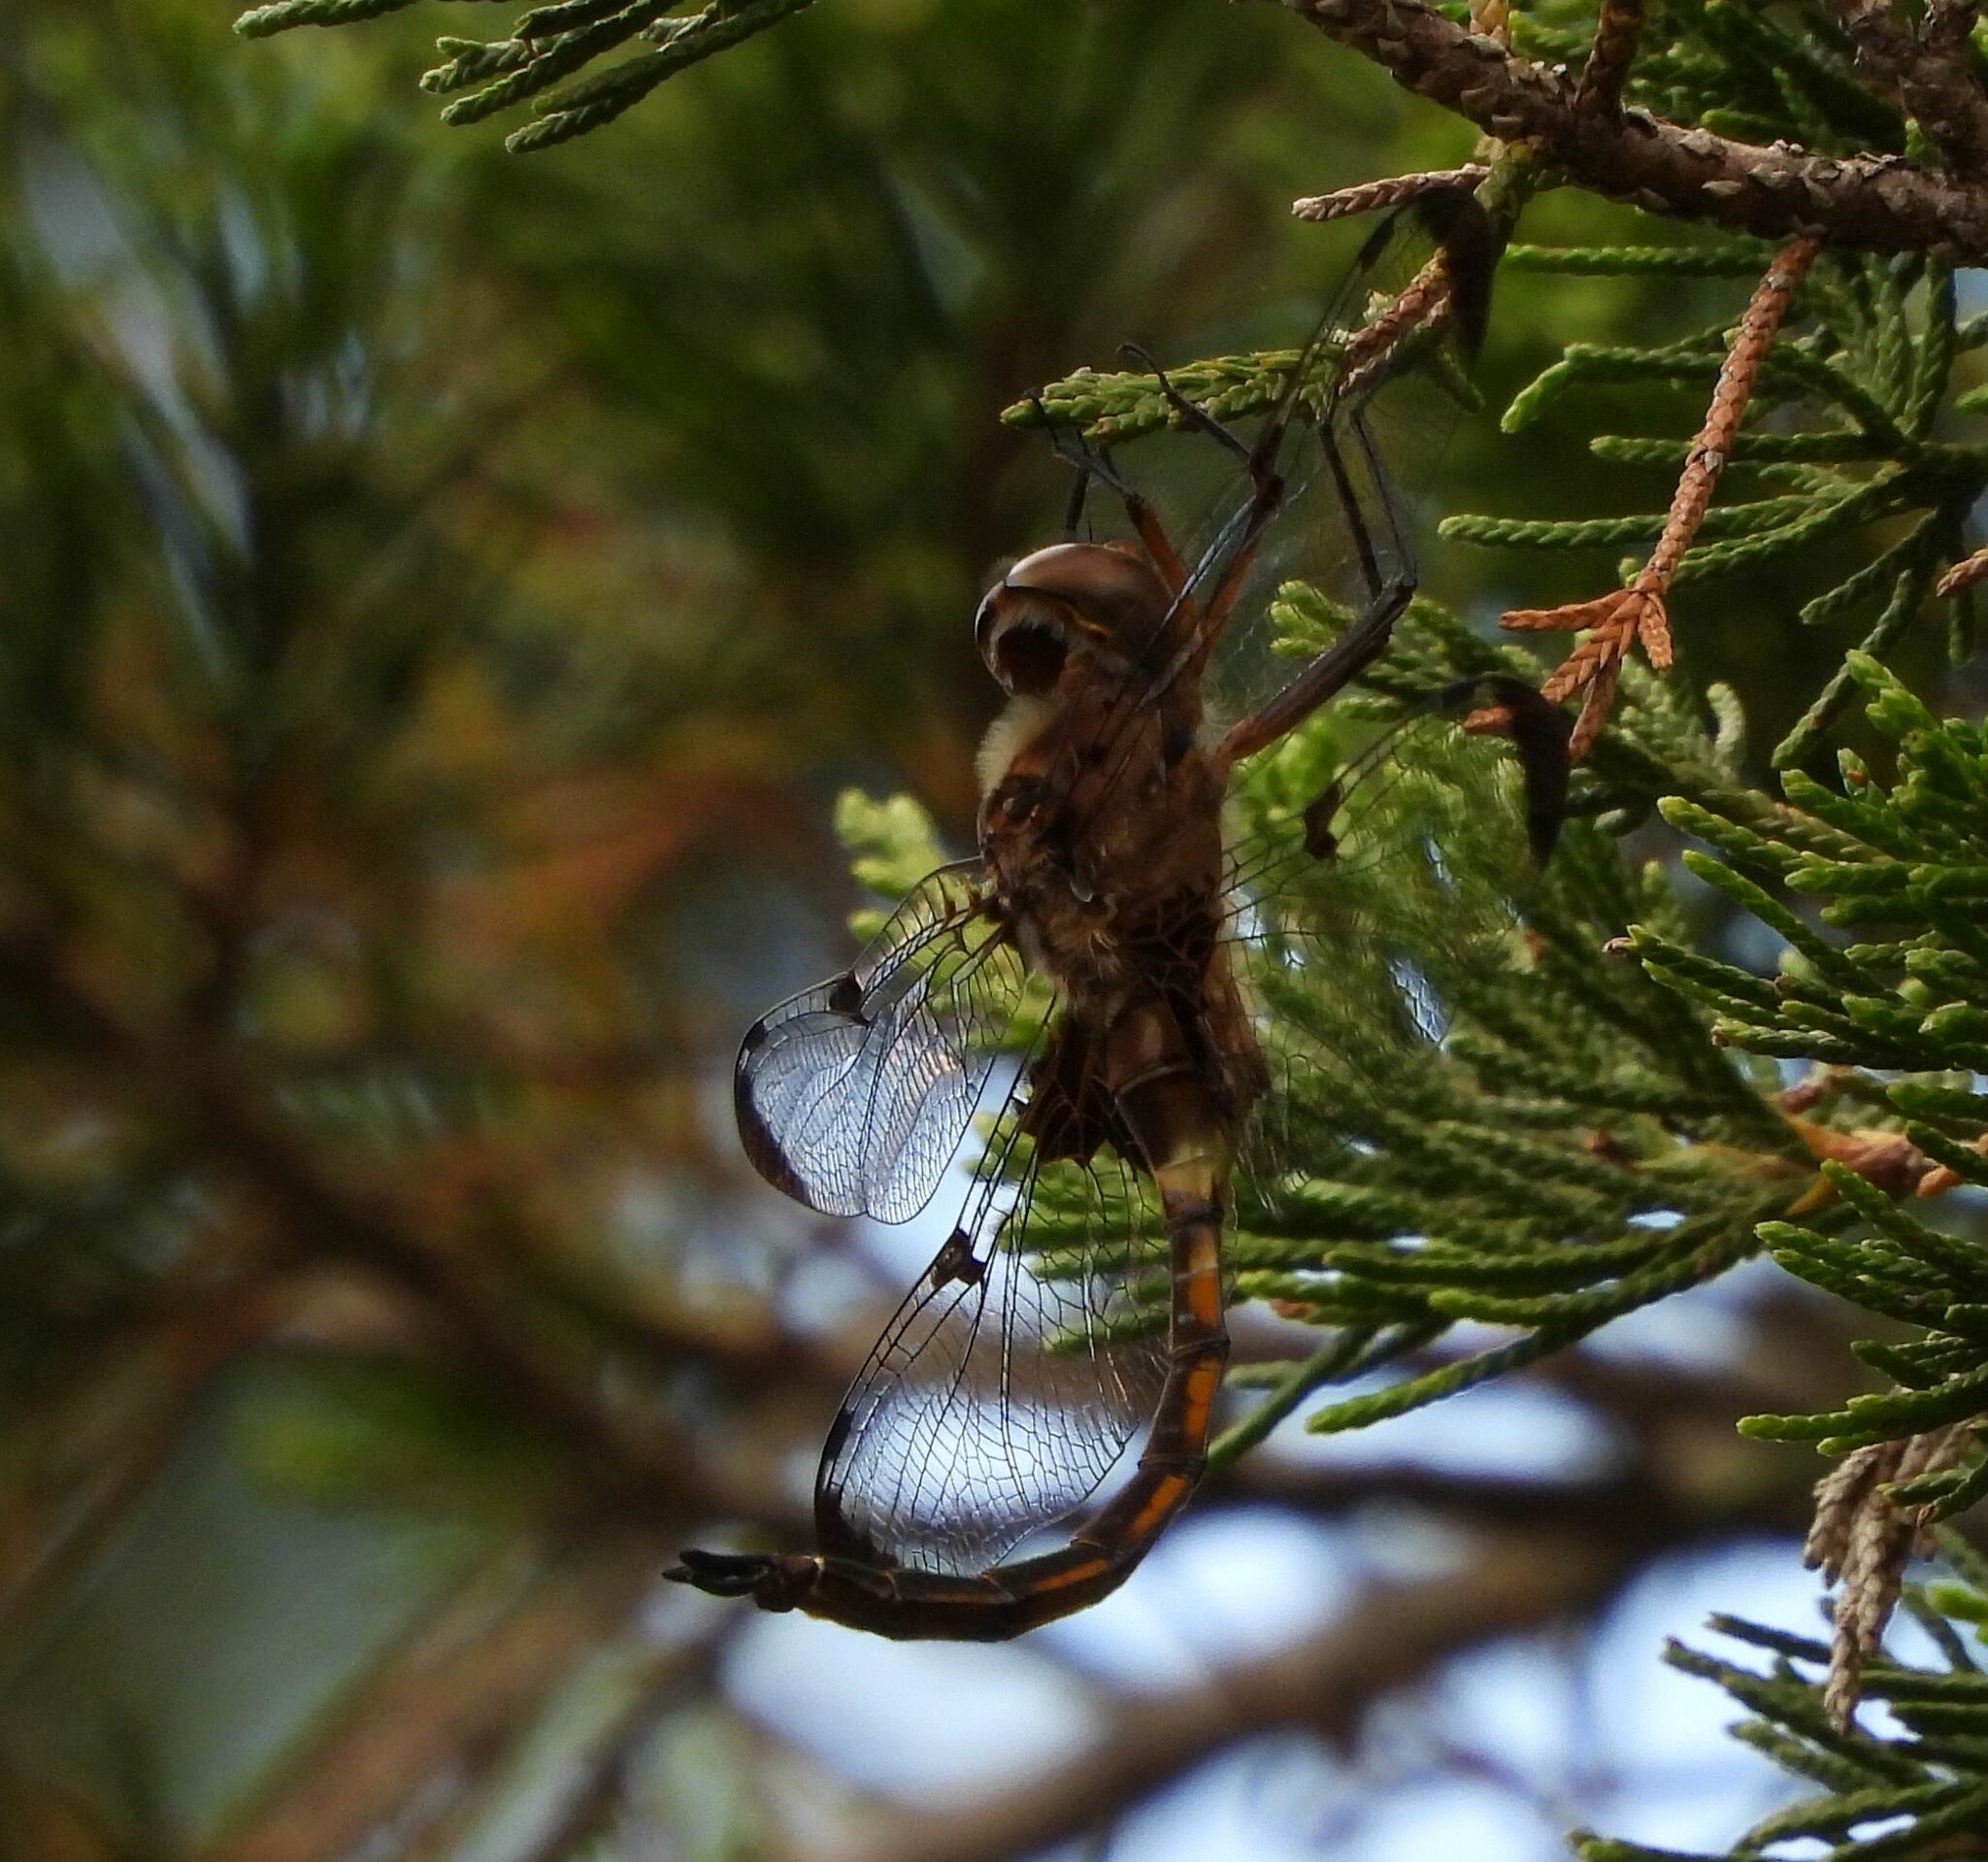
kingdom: Animalia
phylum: Arthropoda
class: Insecta
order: Odonata
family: Corduliidae
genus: Epitheca
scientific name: Epitheca princeps
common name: Prince baskettail
